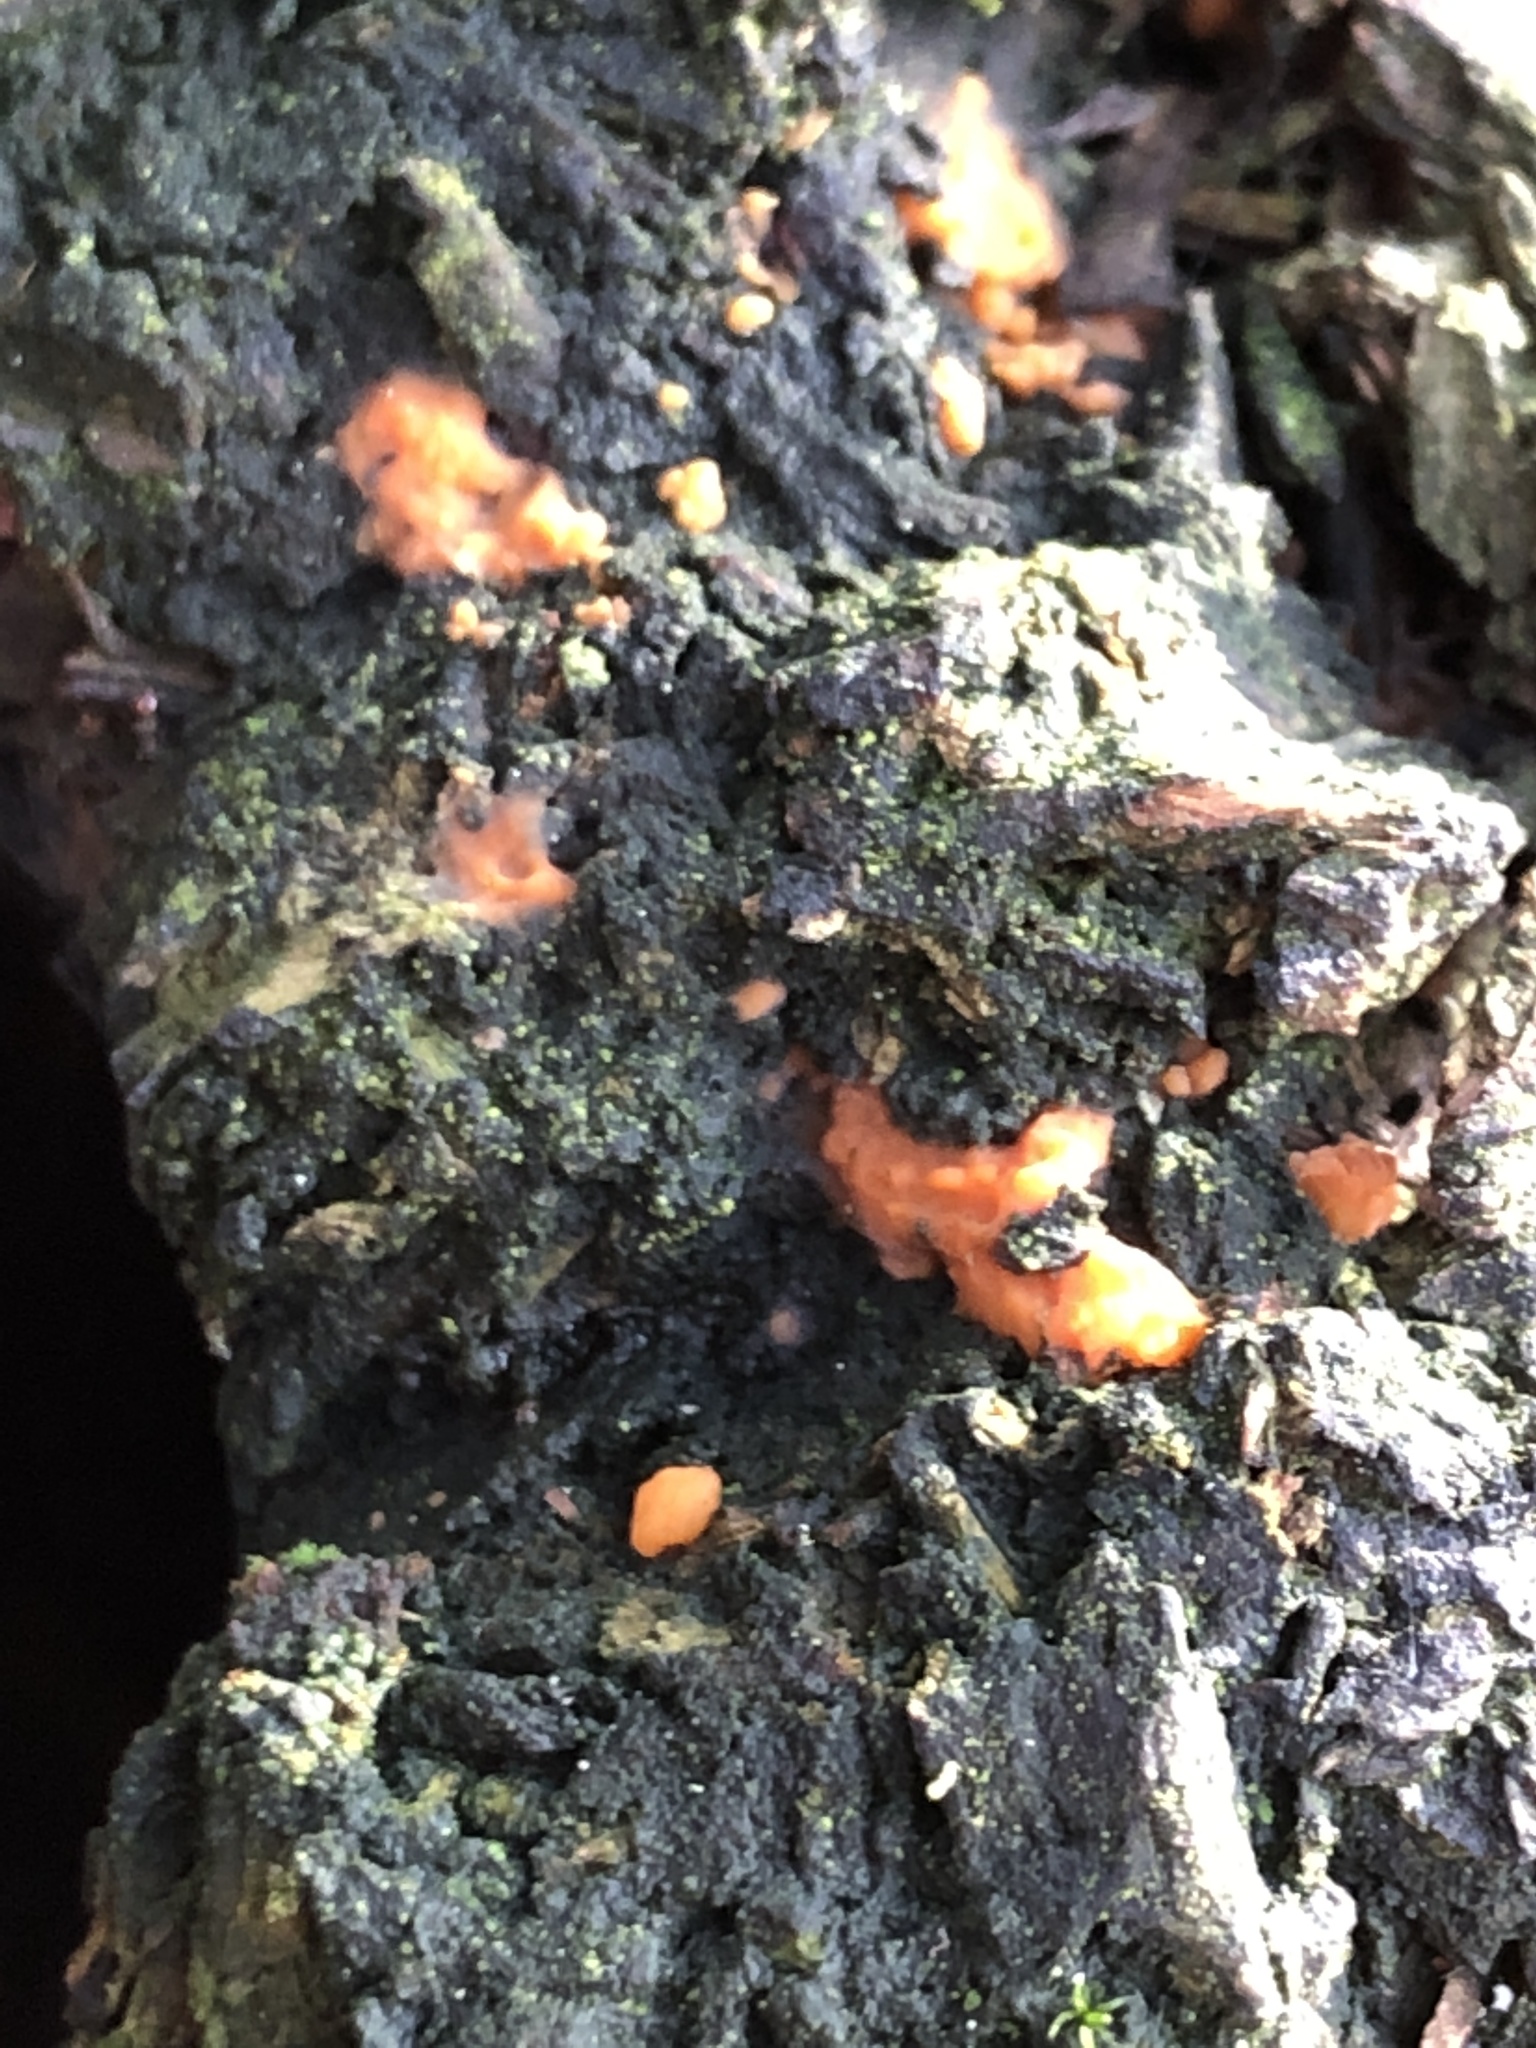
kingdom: Fungi
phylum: Basidiomycota
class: Dacrymycetes
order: Dacrymycetales
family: Dacrymycetaceae
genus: Dacrymyces
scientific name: Dacrymyces stillatus
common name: Common jelly spot
